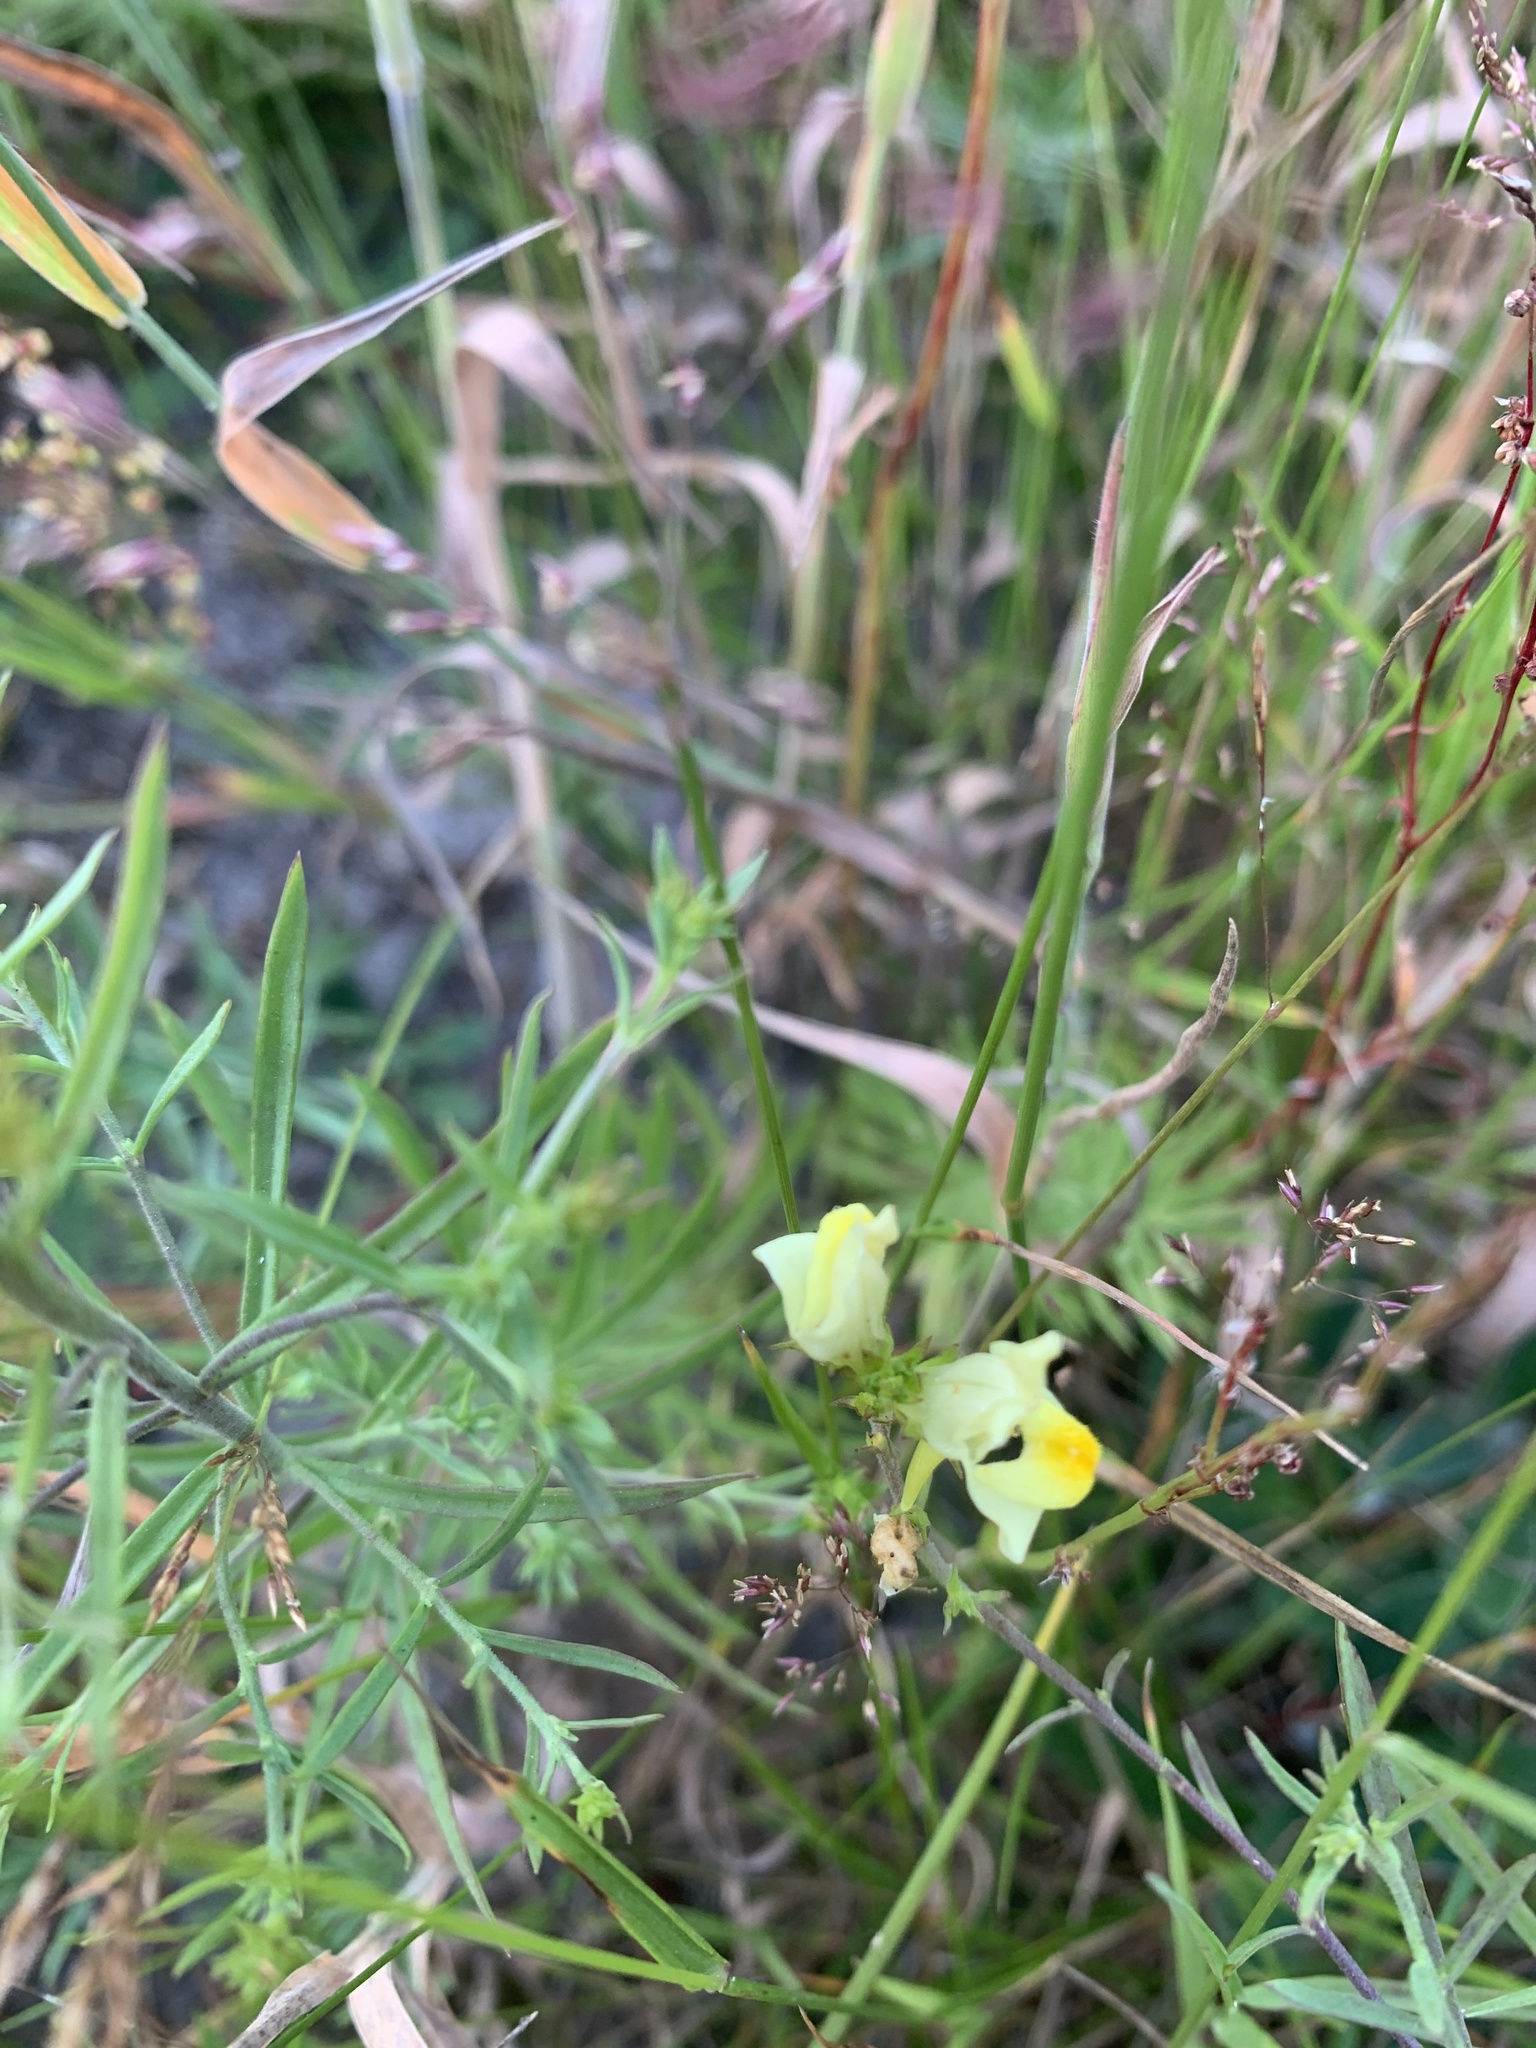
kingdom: Plantae
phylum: Tracheophyta
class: Magnoliopsida
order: Lamiales
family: Plantaginaceae
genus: Linaria
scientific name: Linaria vulgaris
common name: Butter and eggs
